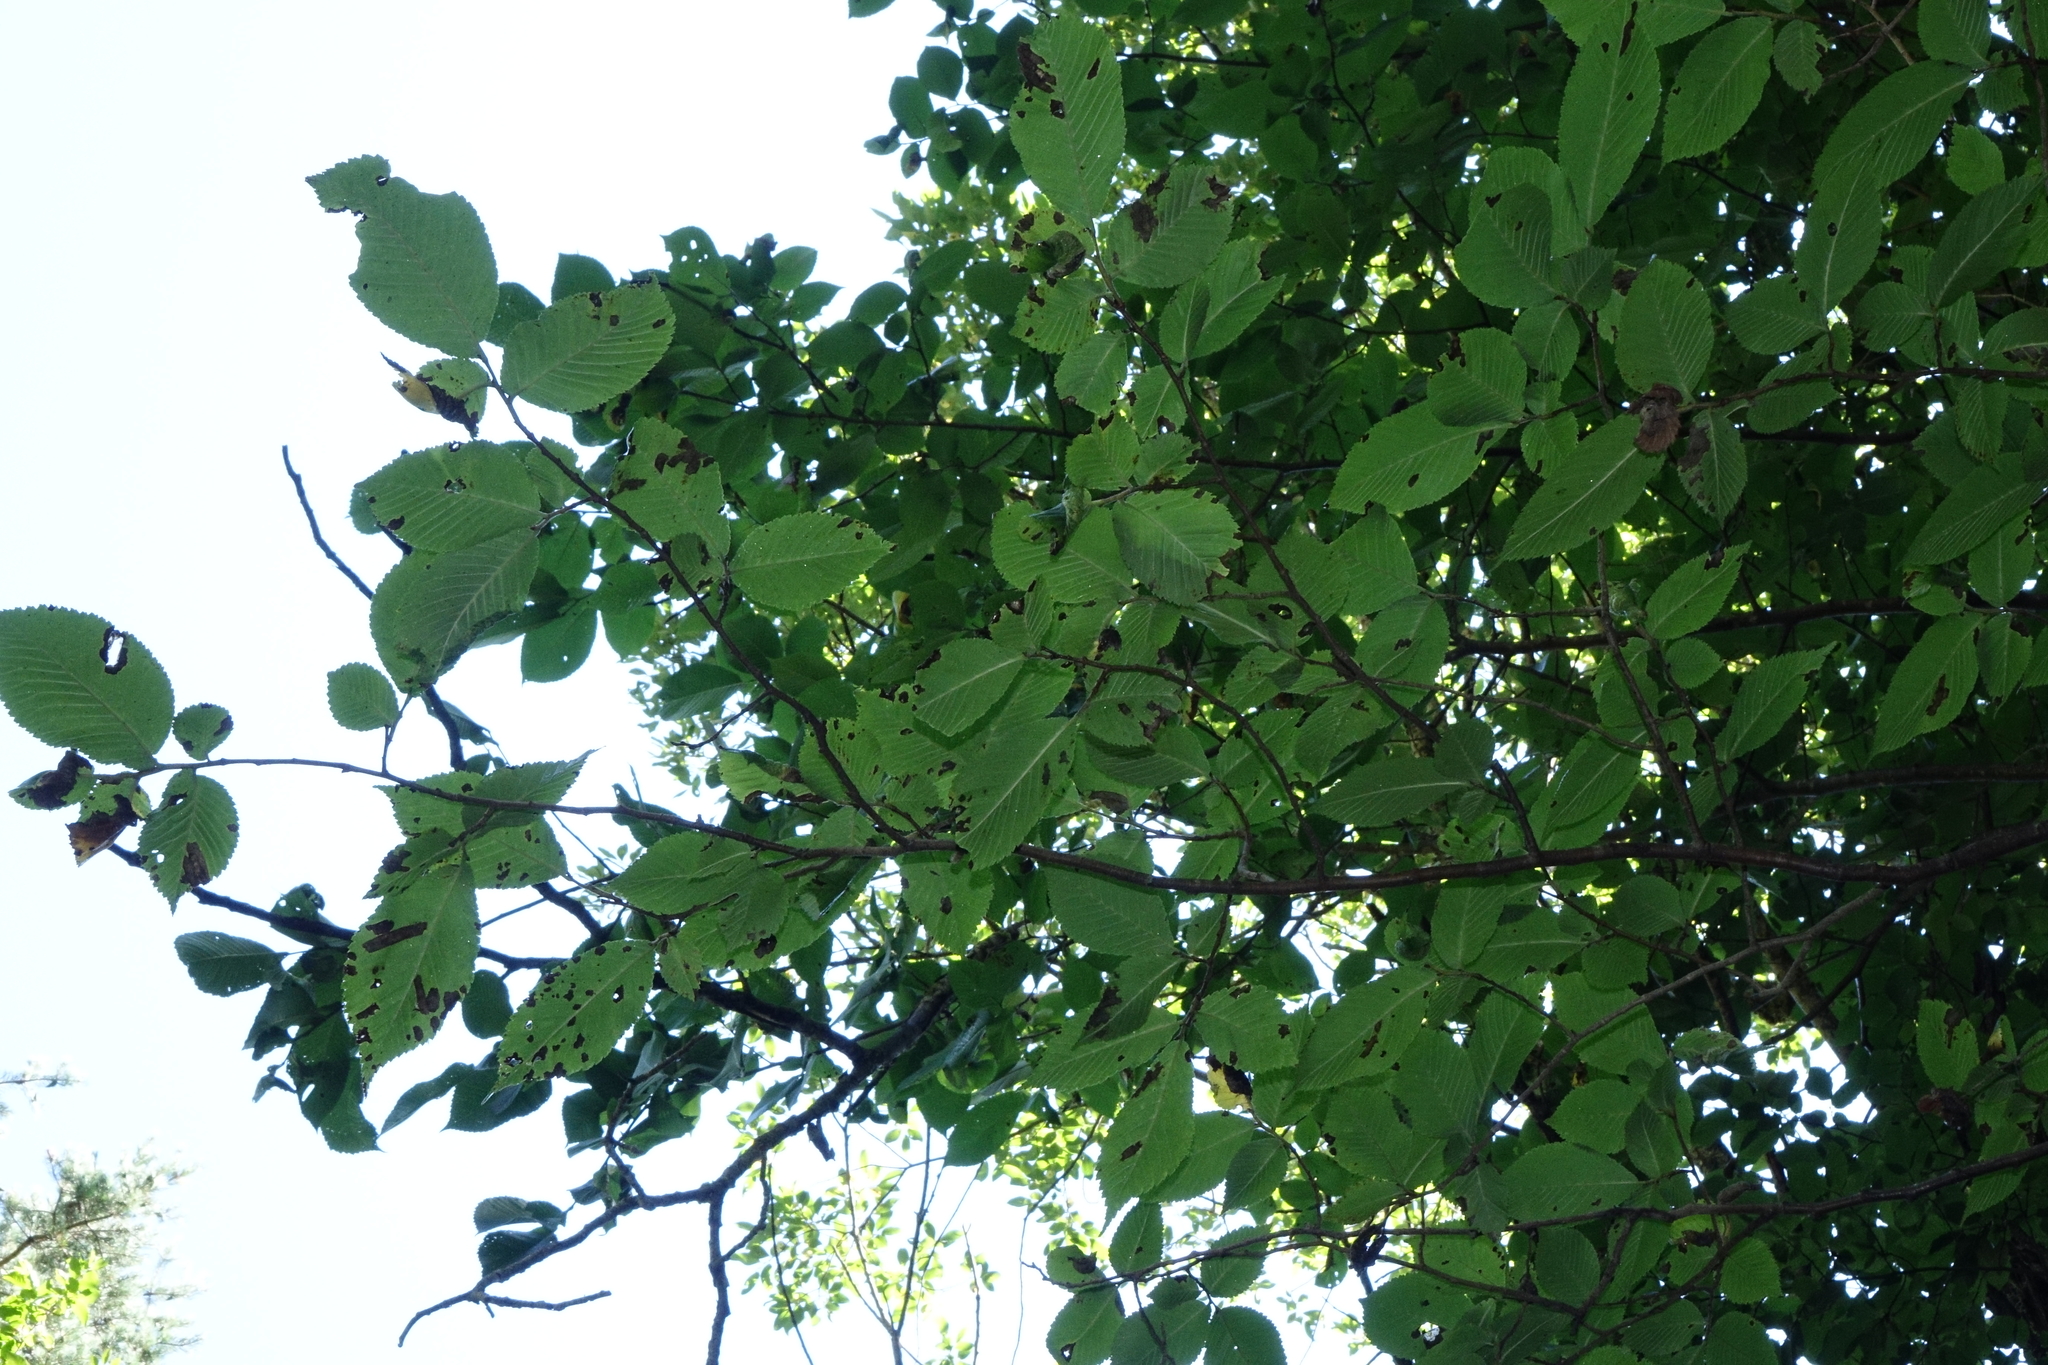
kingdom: Plantae
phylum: Tracheophyta
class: Magnoliopsida
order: Rosales
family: Ulmaceae
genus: Ulmus
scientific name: Ulmus glabra
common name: Wych elm
